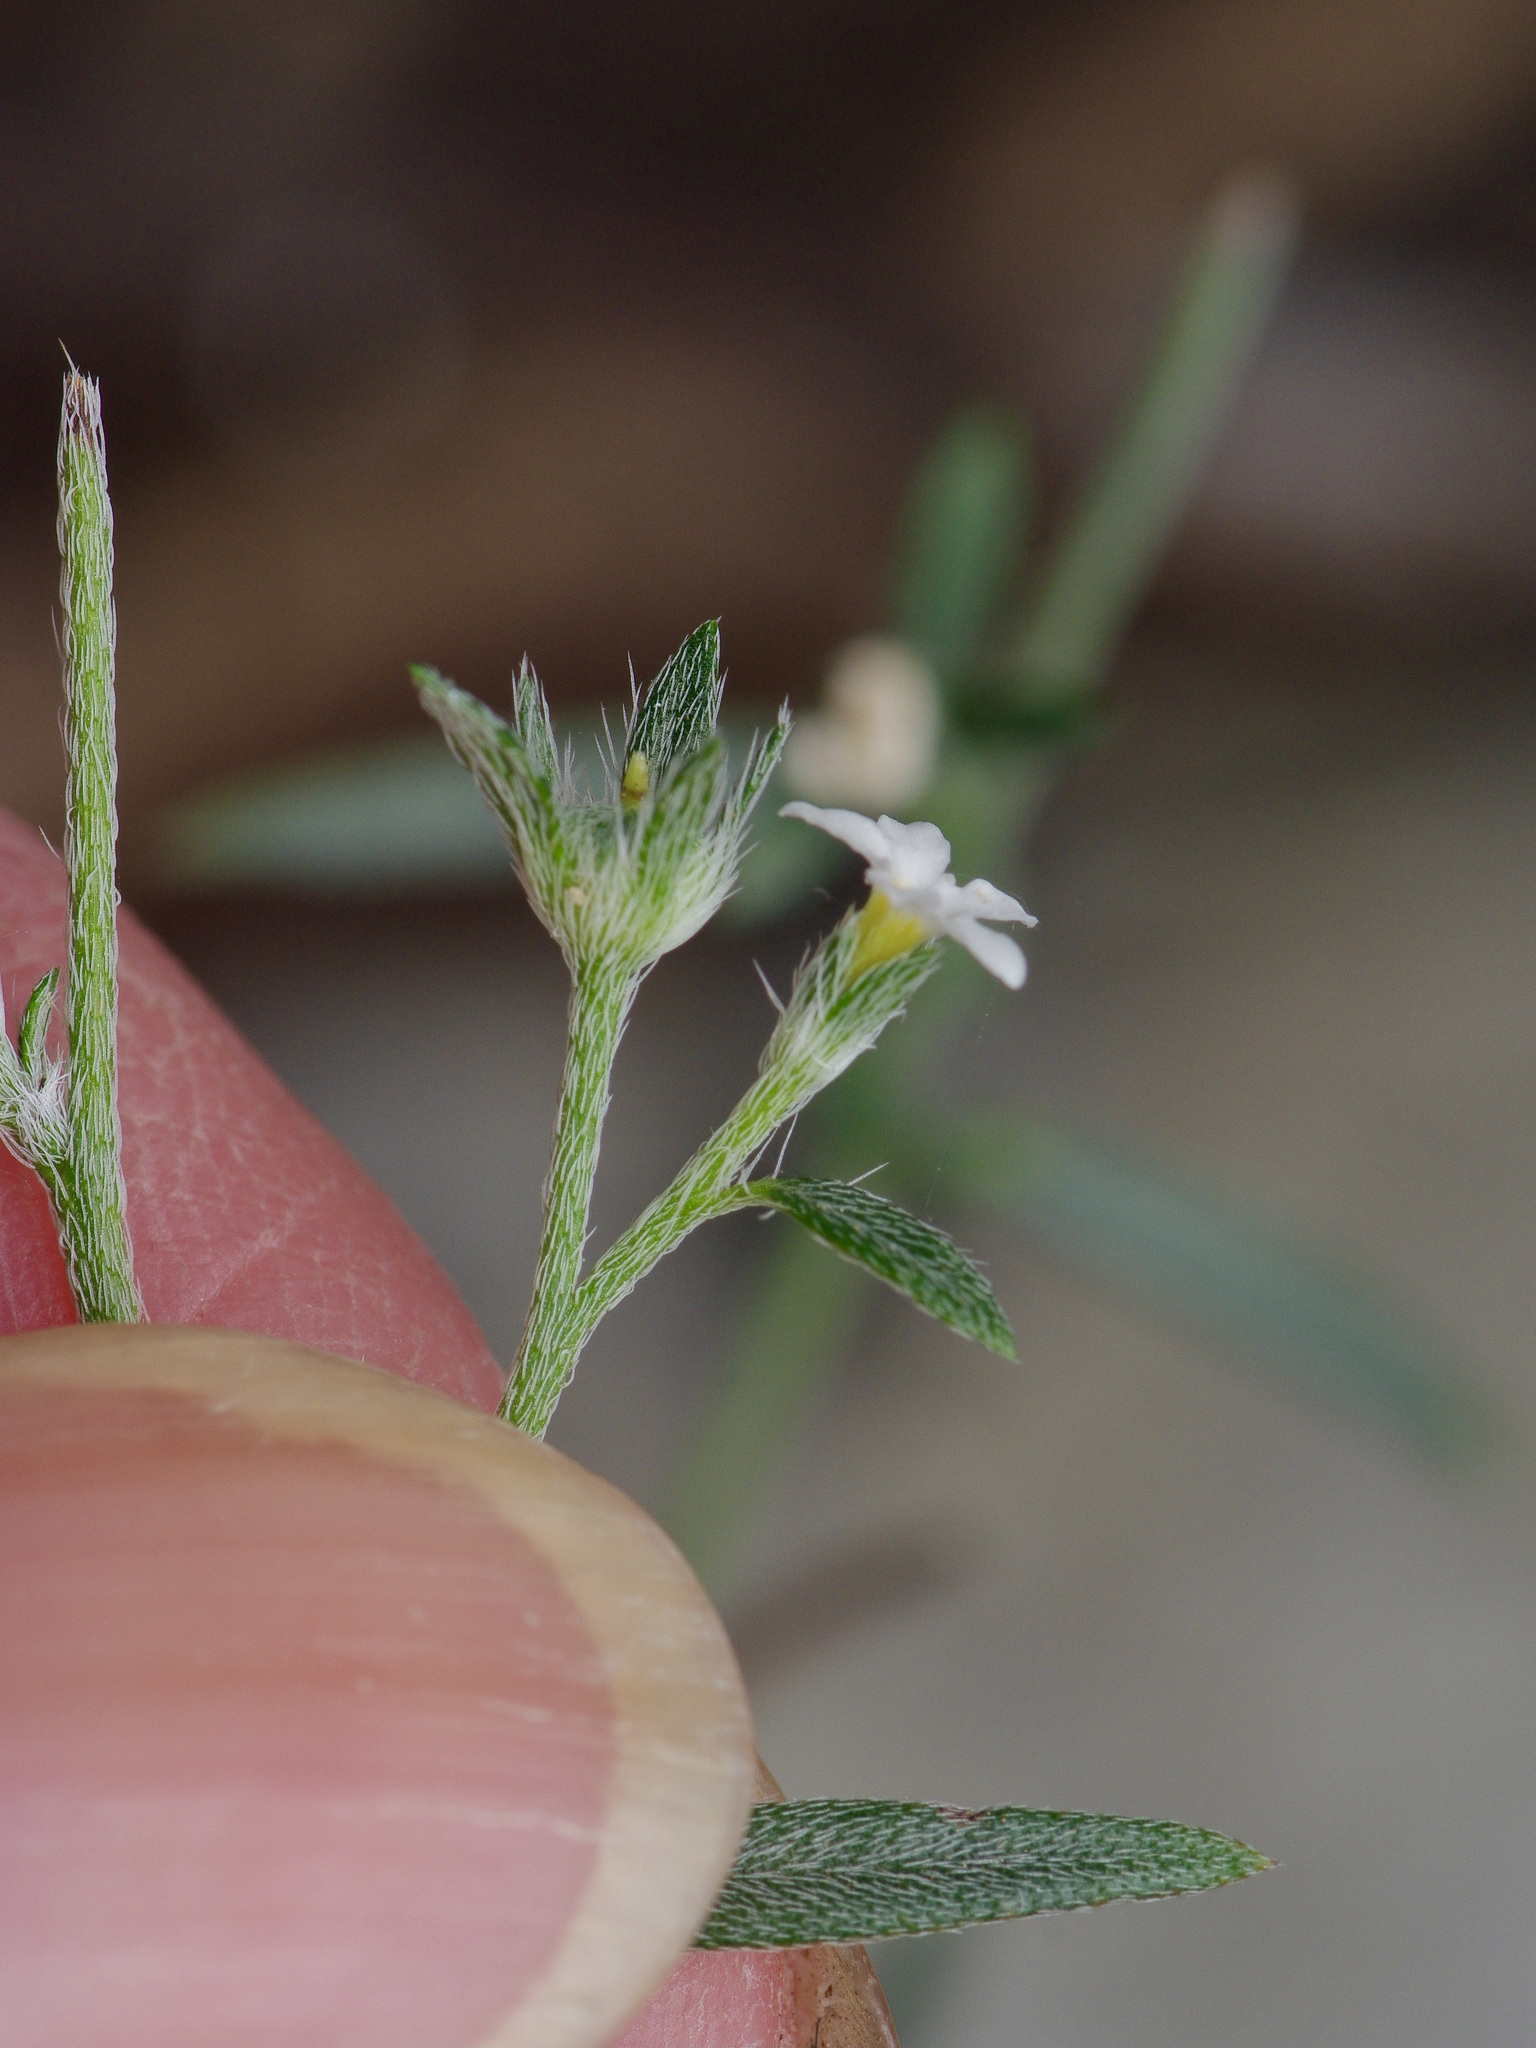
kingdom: Plantae
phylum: Tracheophyta
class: Magnoliopsida
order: Boraginales
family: Heliotropiaceae
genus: Euploca
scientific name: Euploca tenella
